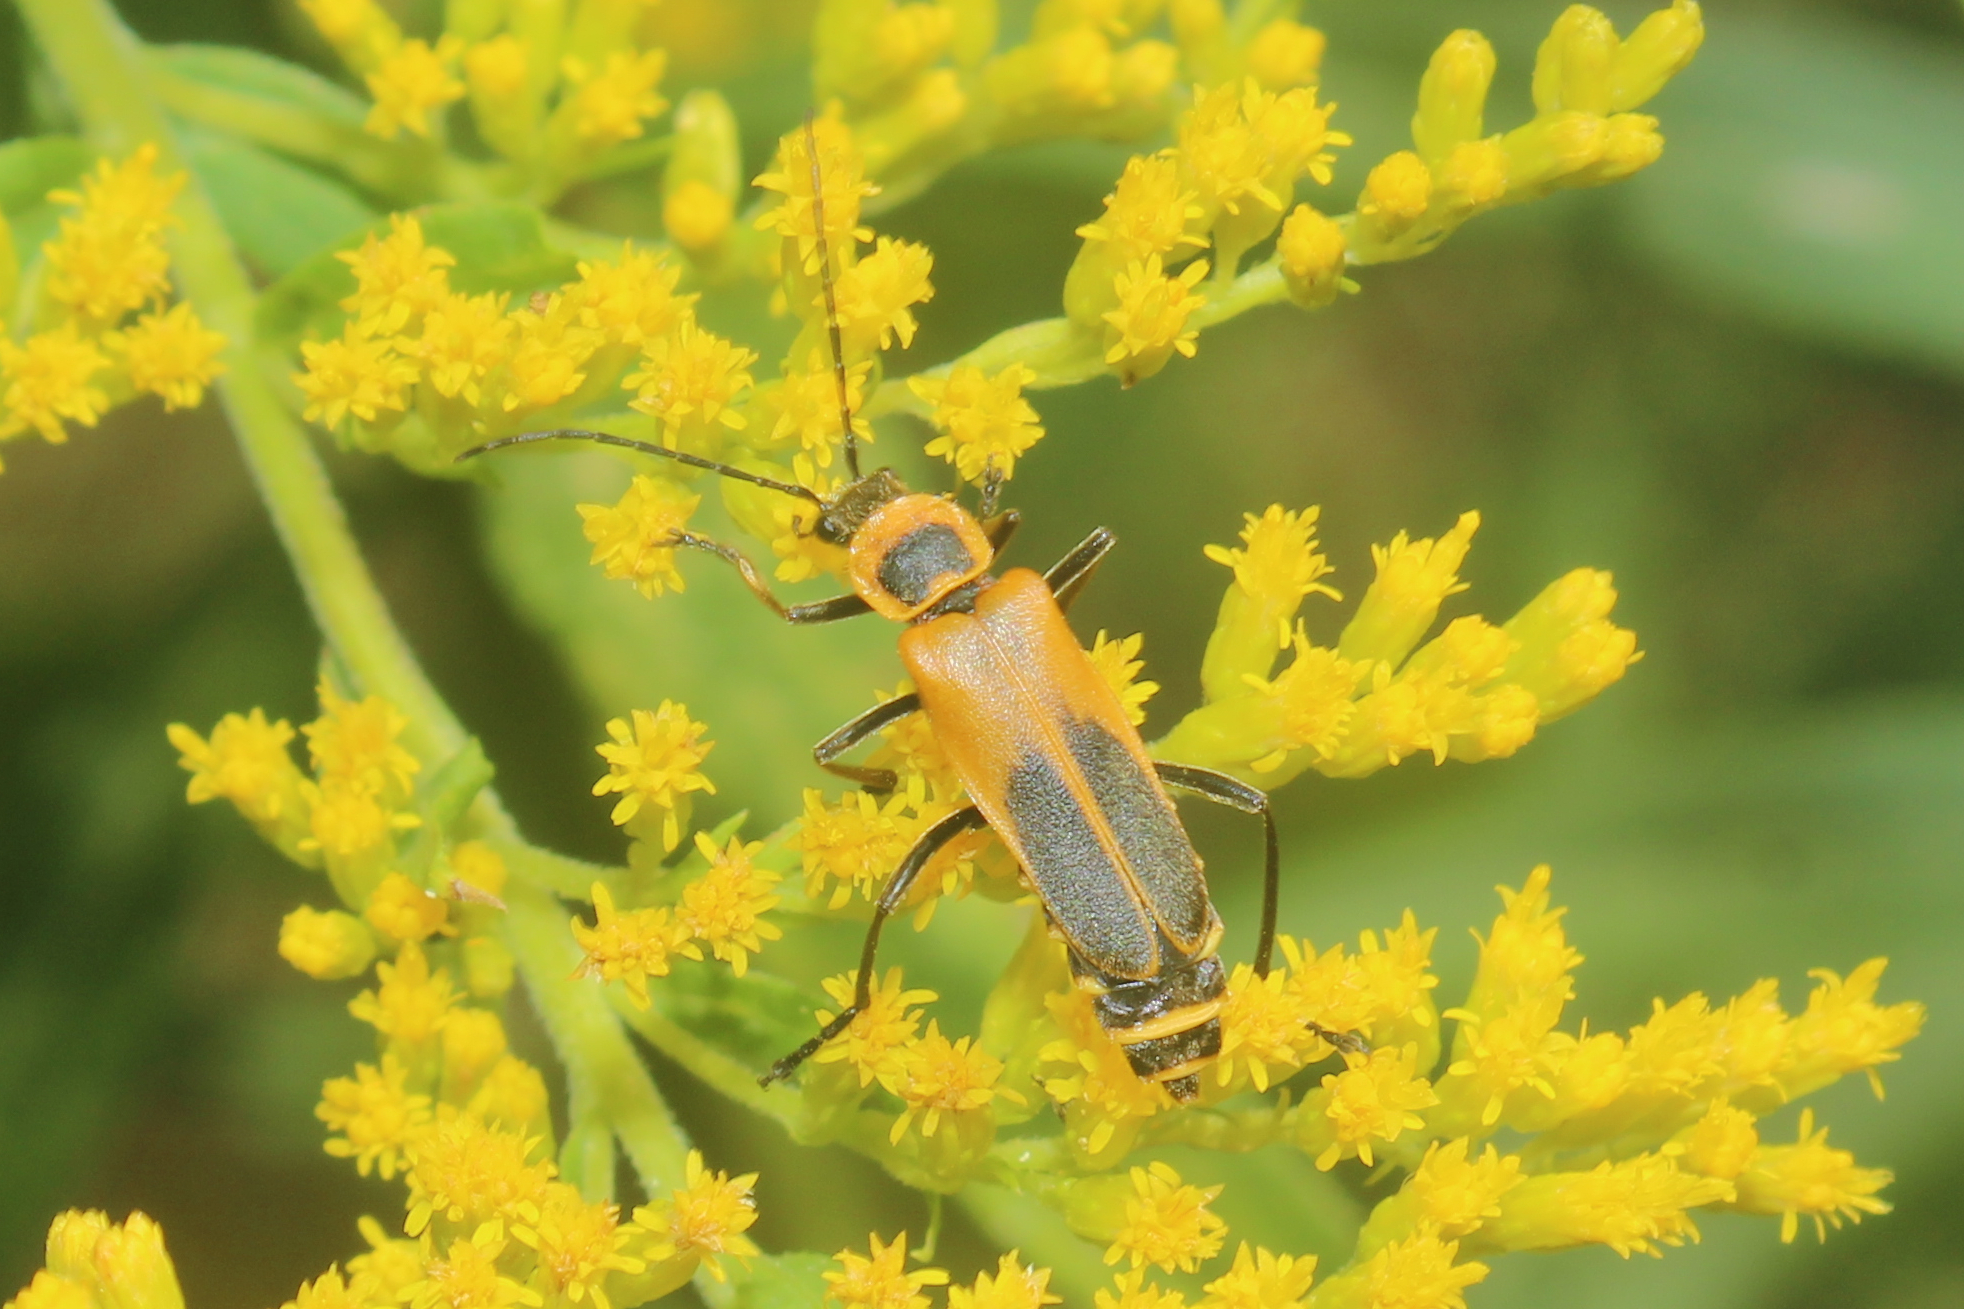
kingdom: Animalia
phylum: Arthropoda
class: Insecta
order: Coleoptera
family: Cantharidae
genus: Chauliognathus
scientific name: Chauliognathus pensylvanicus
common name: Goldenrod soldier beetle
